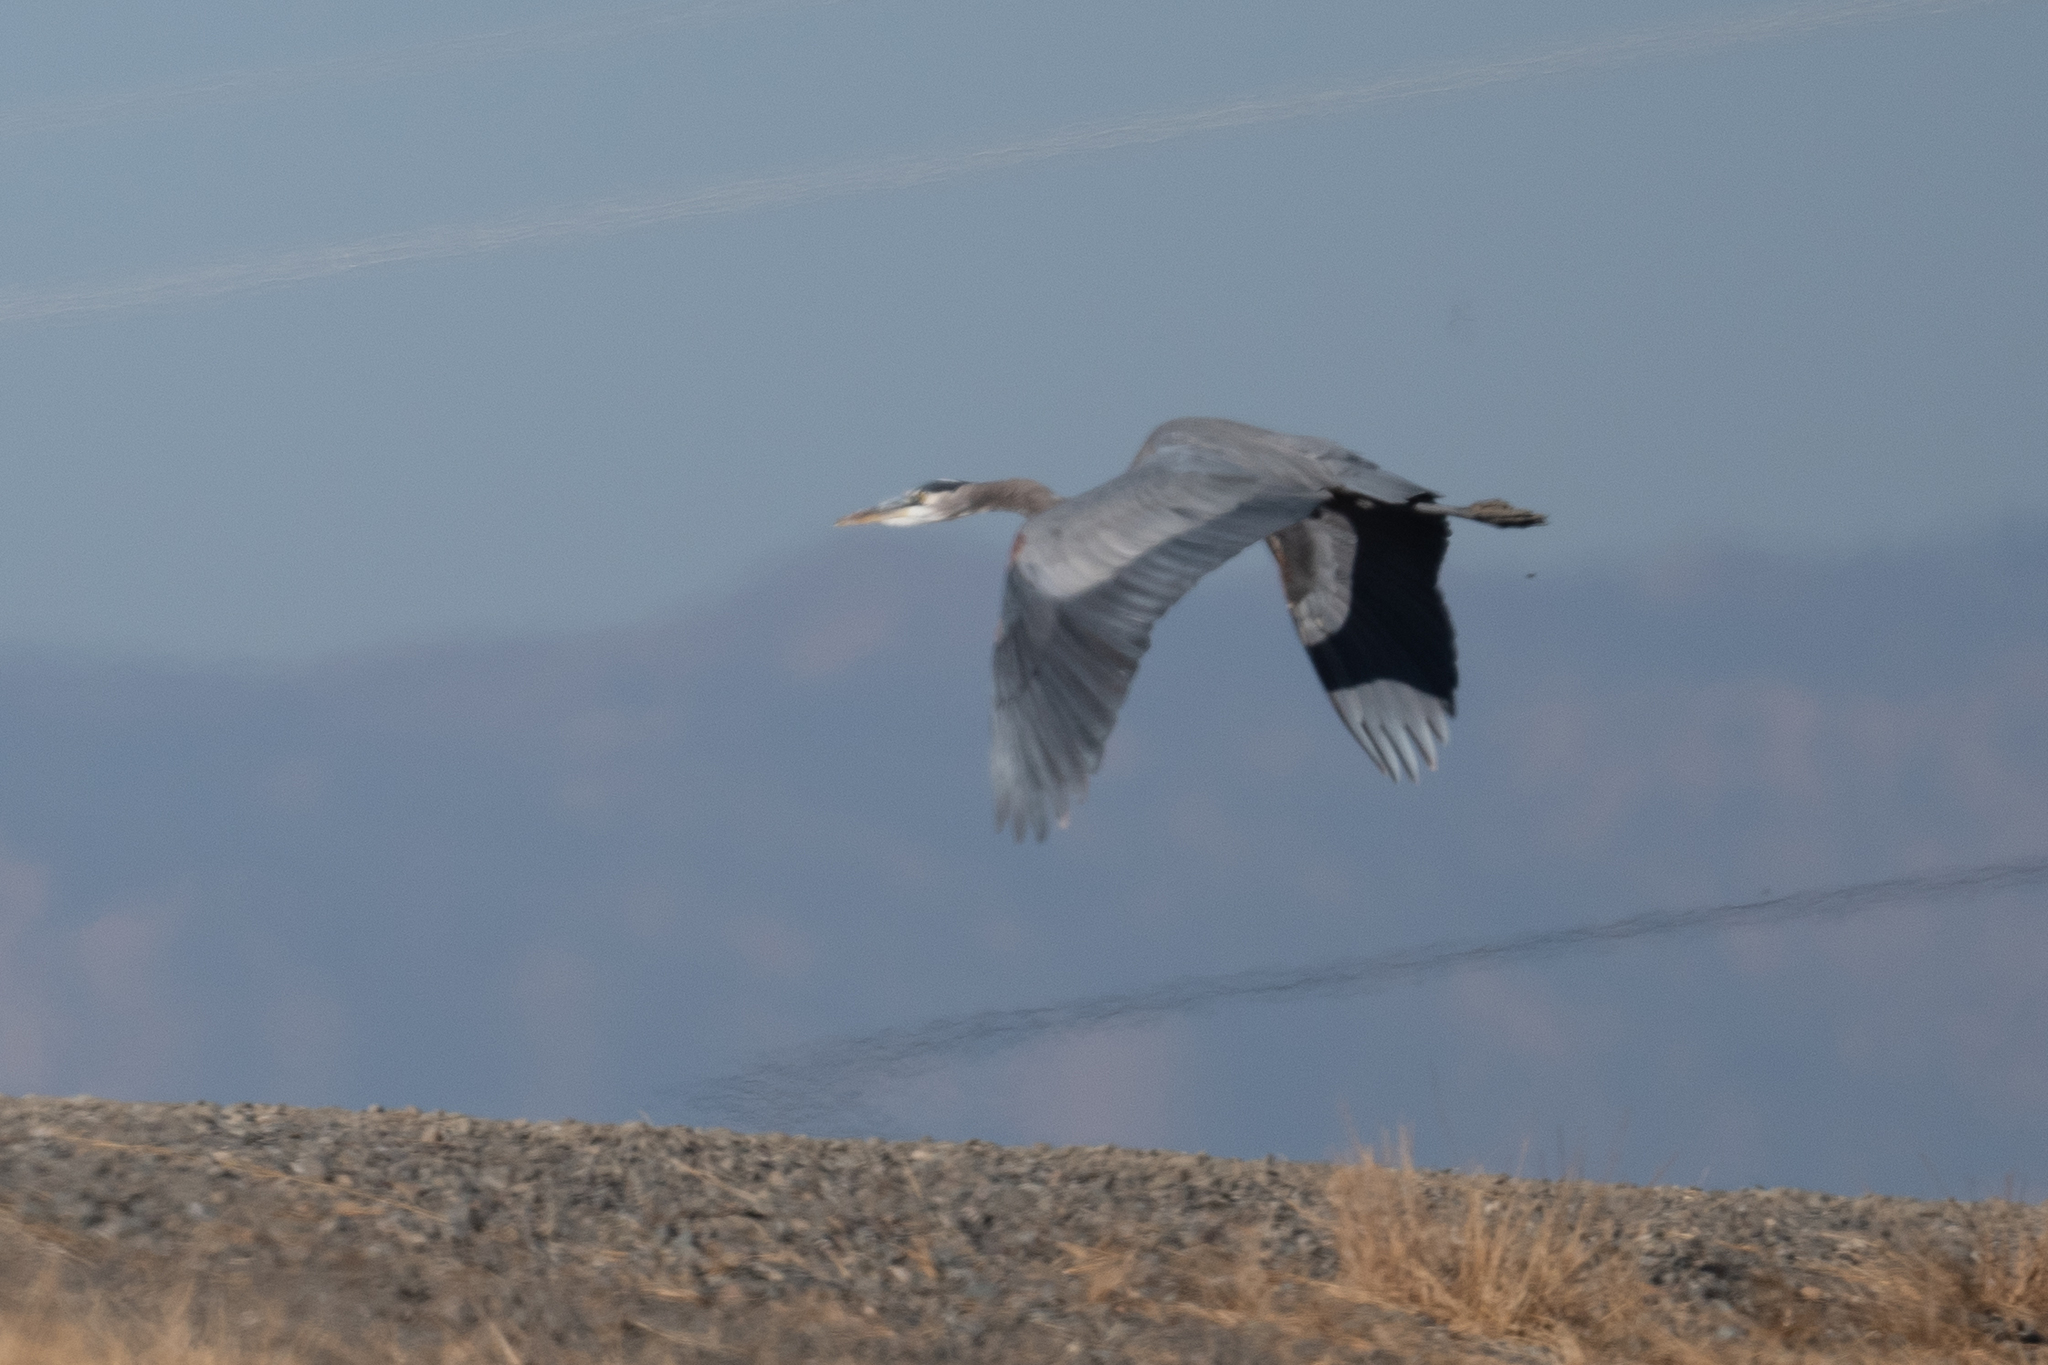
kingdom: Animalia
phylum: Chordata
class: Aves
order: Pelecaniformes
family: Ardeidae
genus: Ardea
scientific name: Ardea herodias
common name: Great blue heron
